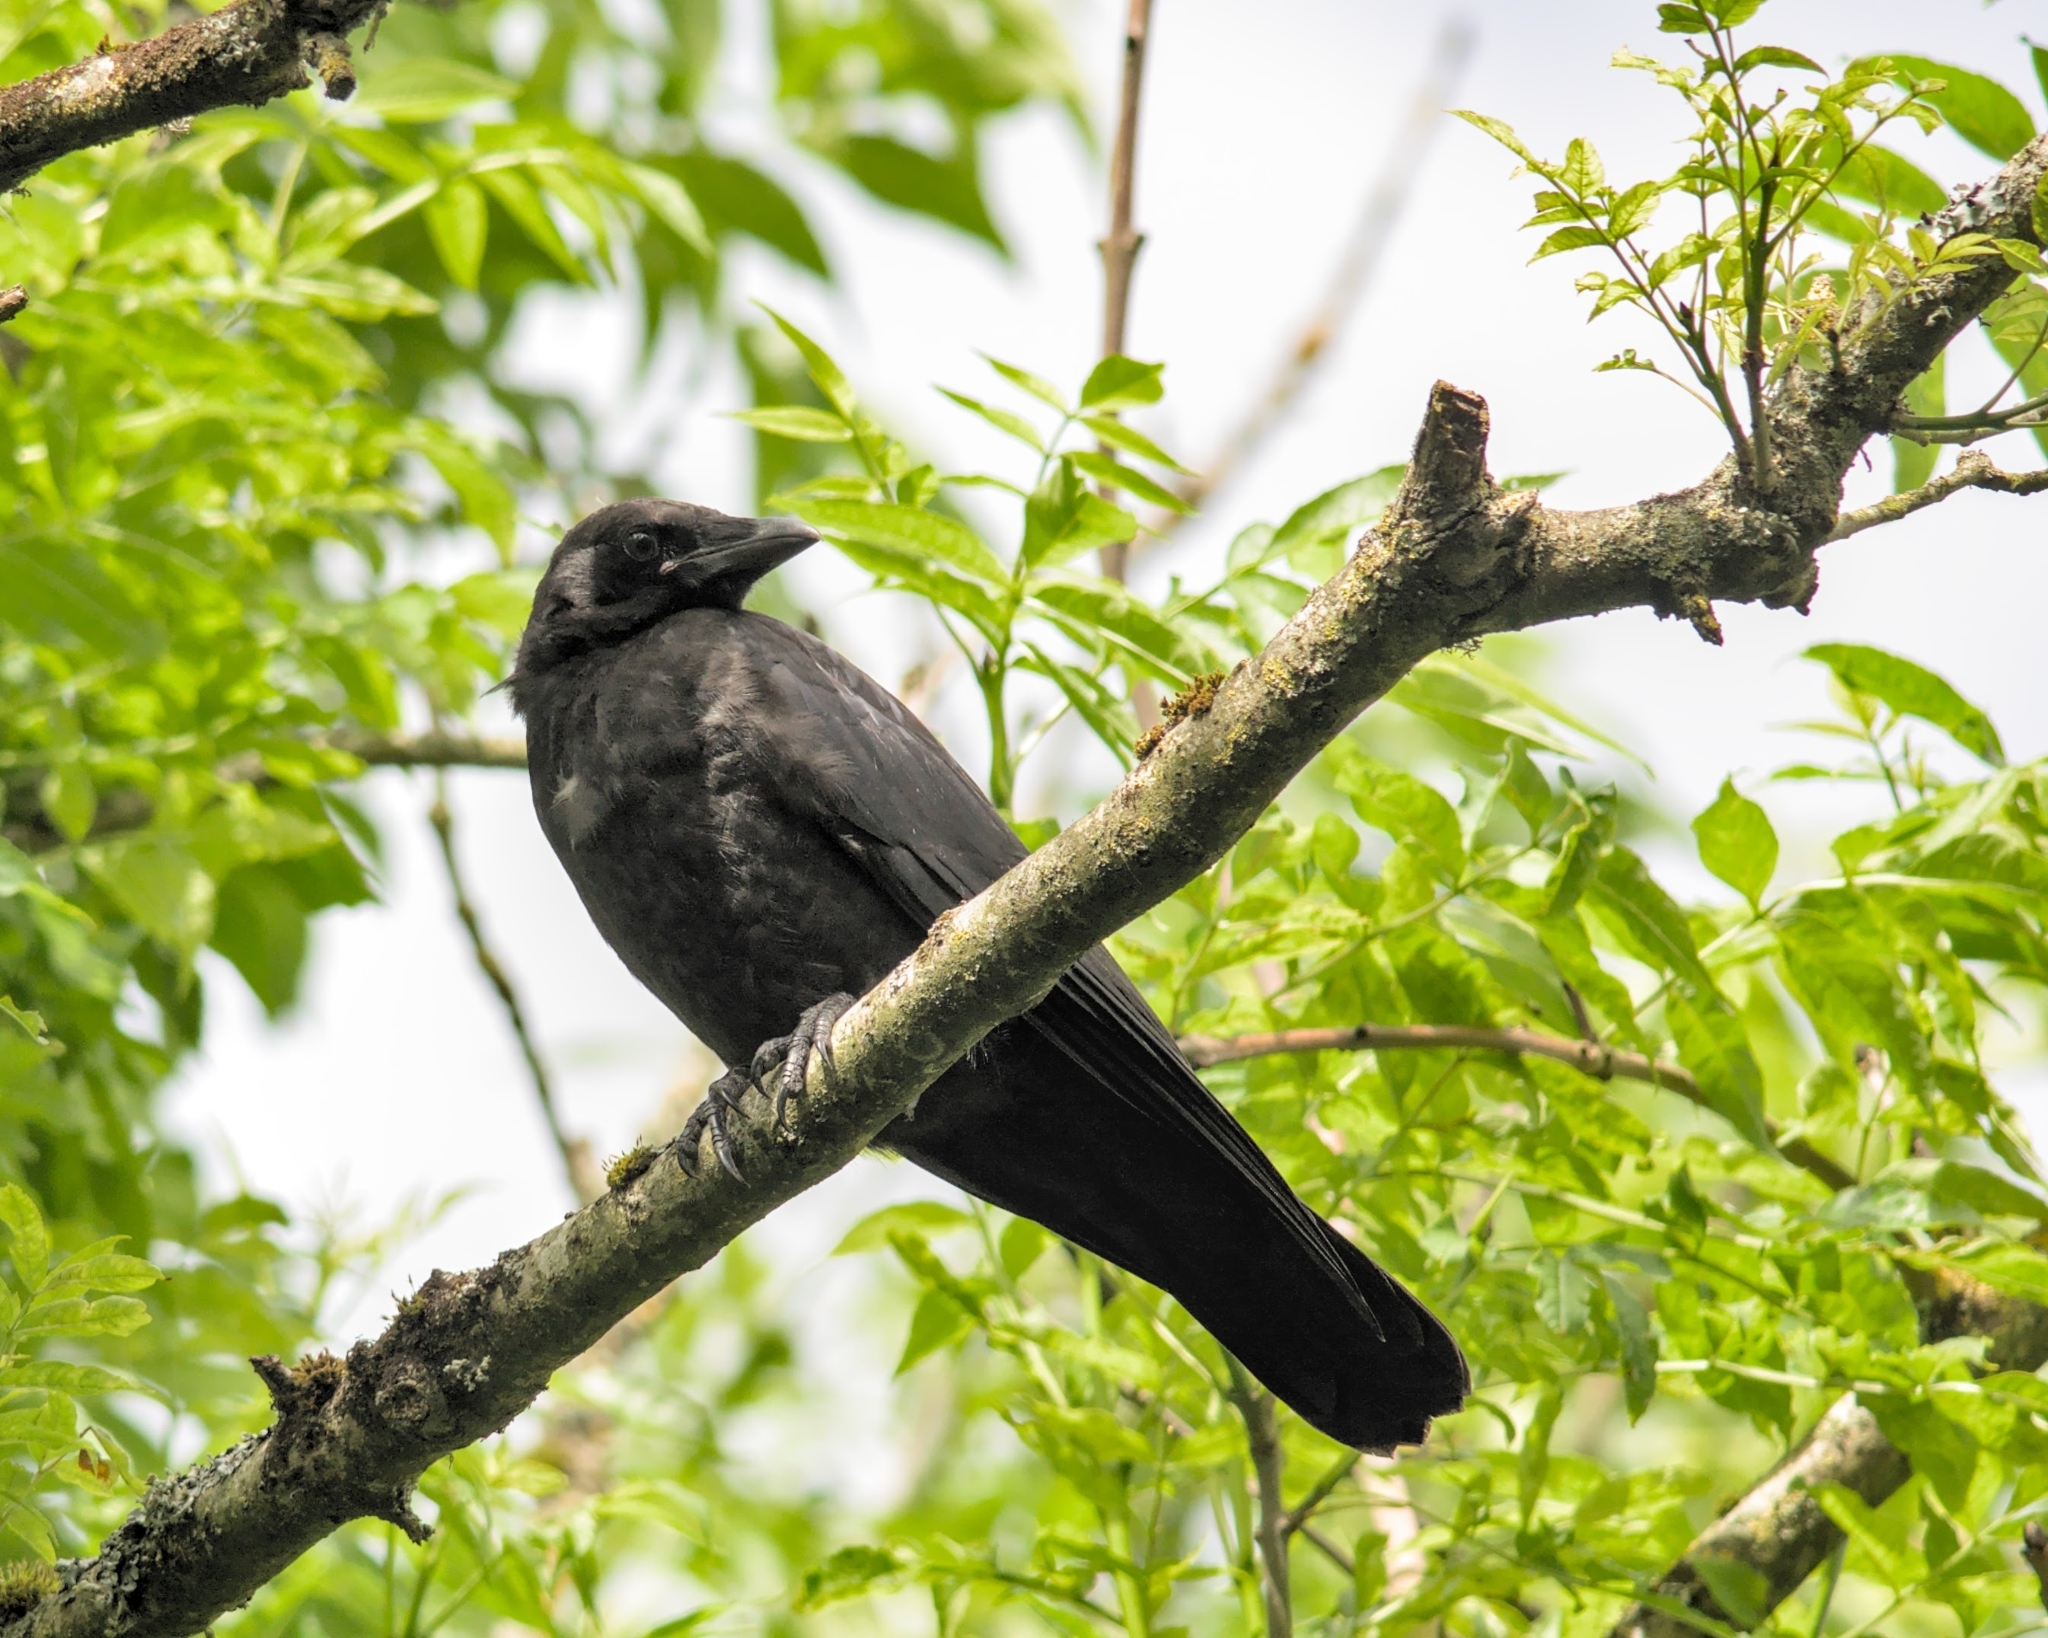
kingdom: Animalia
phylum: Chordata
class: Aves
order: Passeriformes
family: Corvidae
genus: Corvus
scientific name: Corvus corone
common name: Carrion crow
